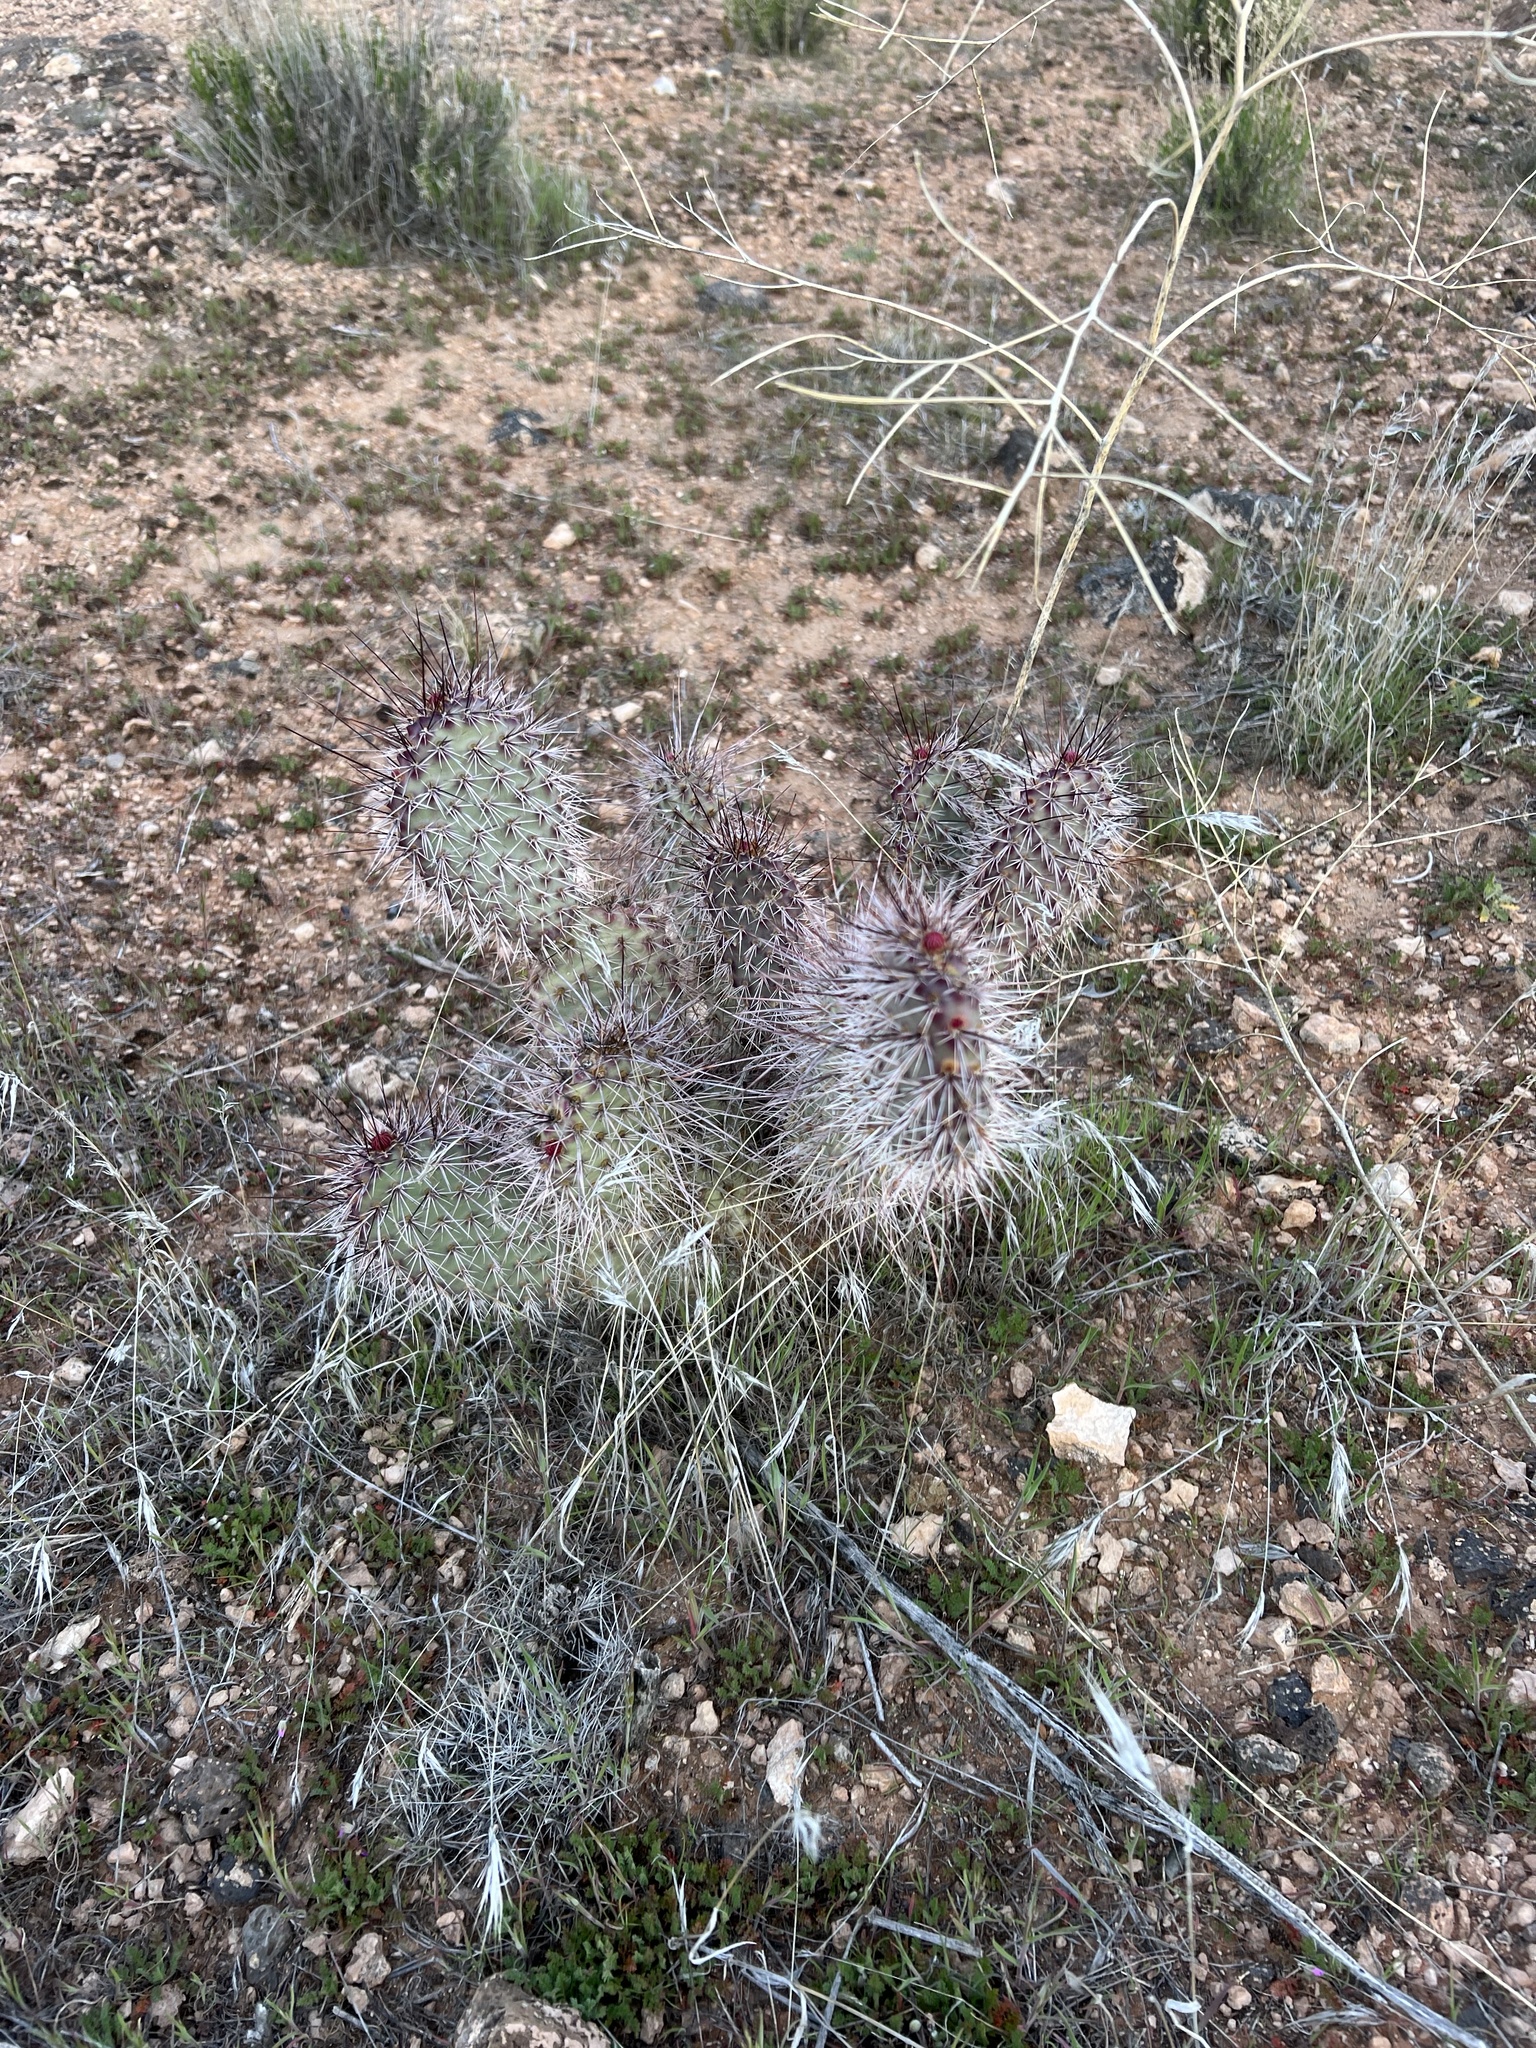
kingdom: Plantae
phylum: Tracheophyta
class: Magnoliopsida
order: Caryophyllales
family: Cactaceae
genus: Opuntia
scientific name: Opuntia polyacantha
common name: Plains prickly-pear
